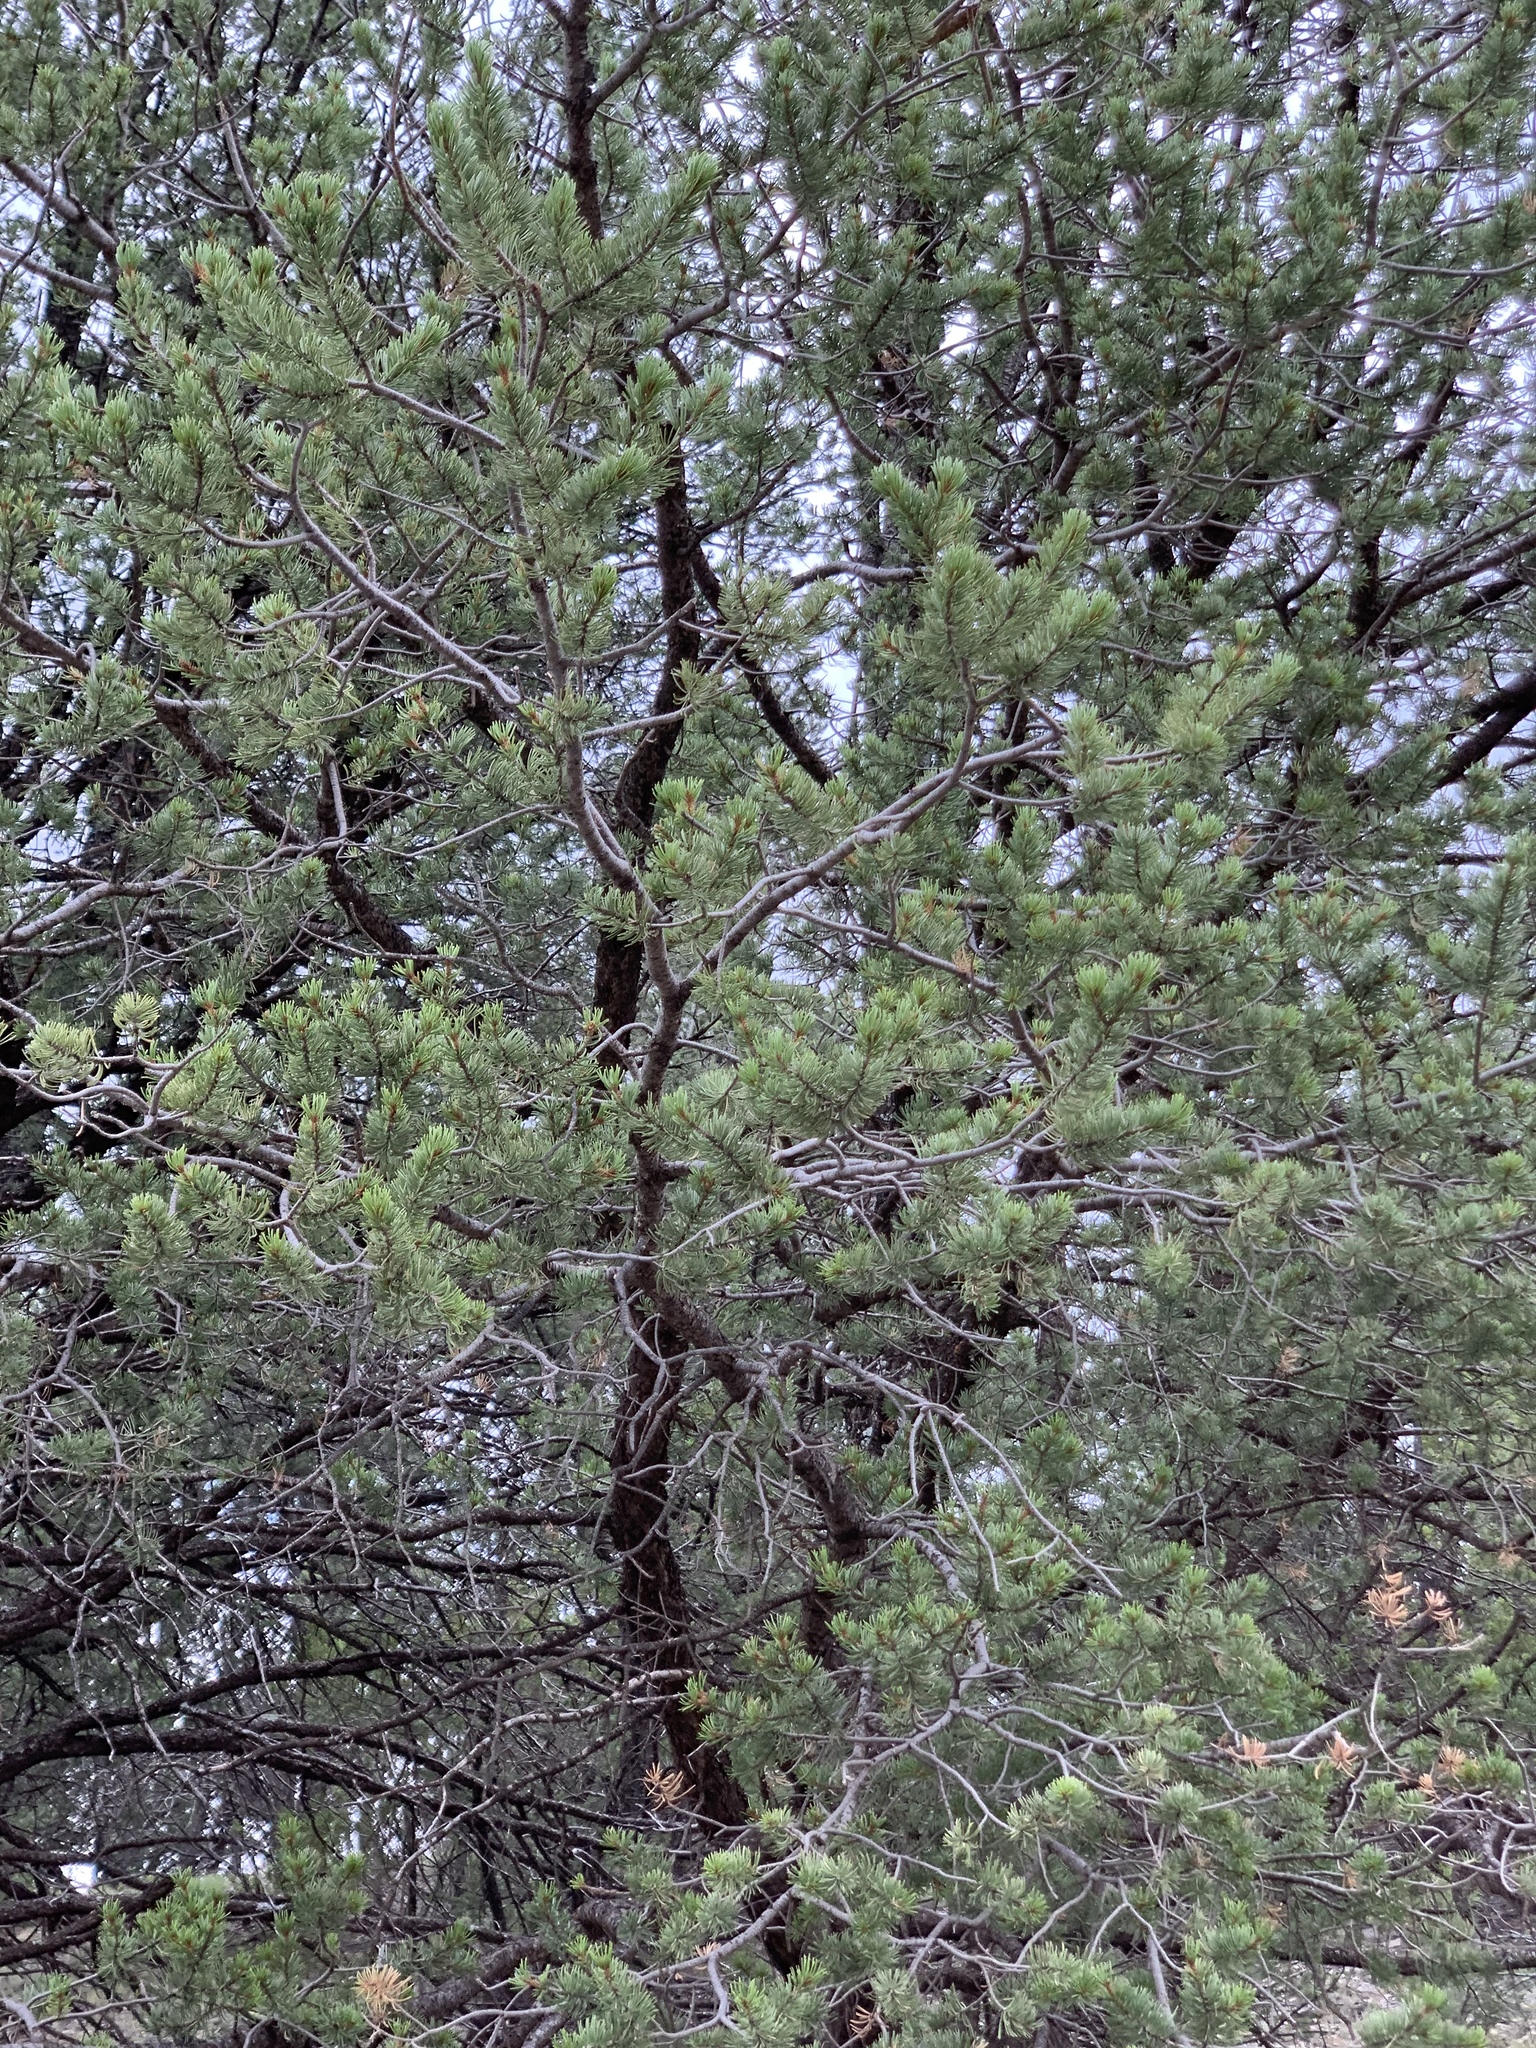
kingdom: Plantae
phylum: Tracheophyta
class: Pinopsida
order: Pinales
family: Pinaceae
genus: Pinus
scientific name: Pinus edulis
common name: Colorado pinyon
